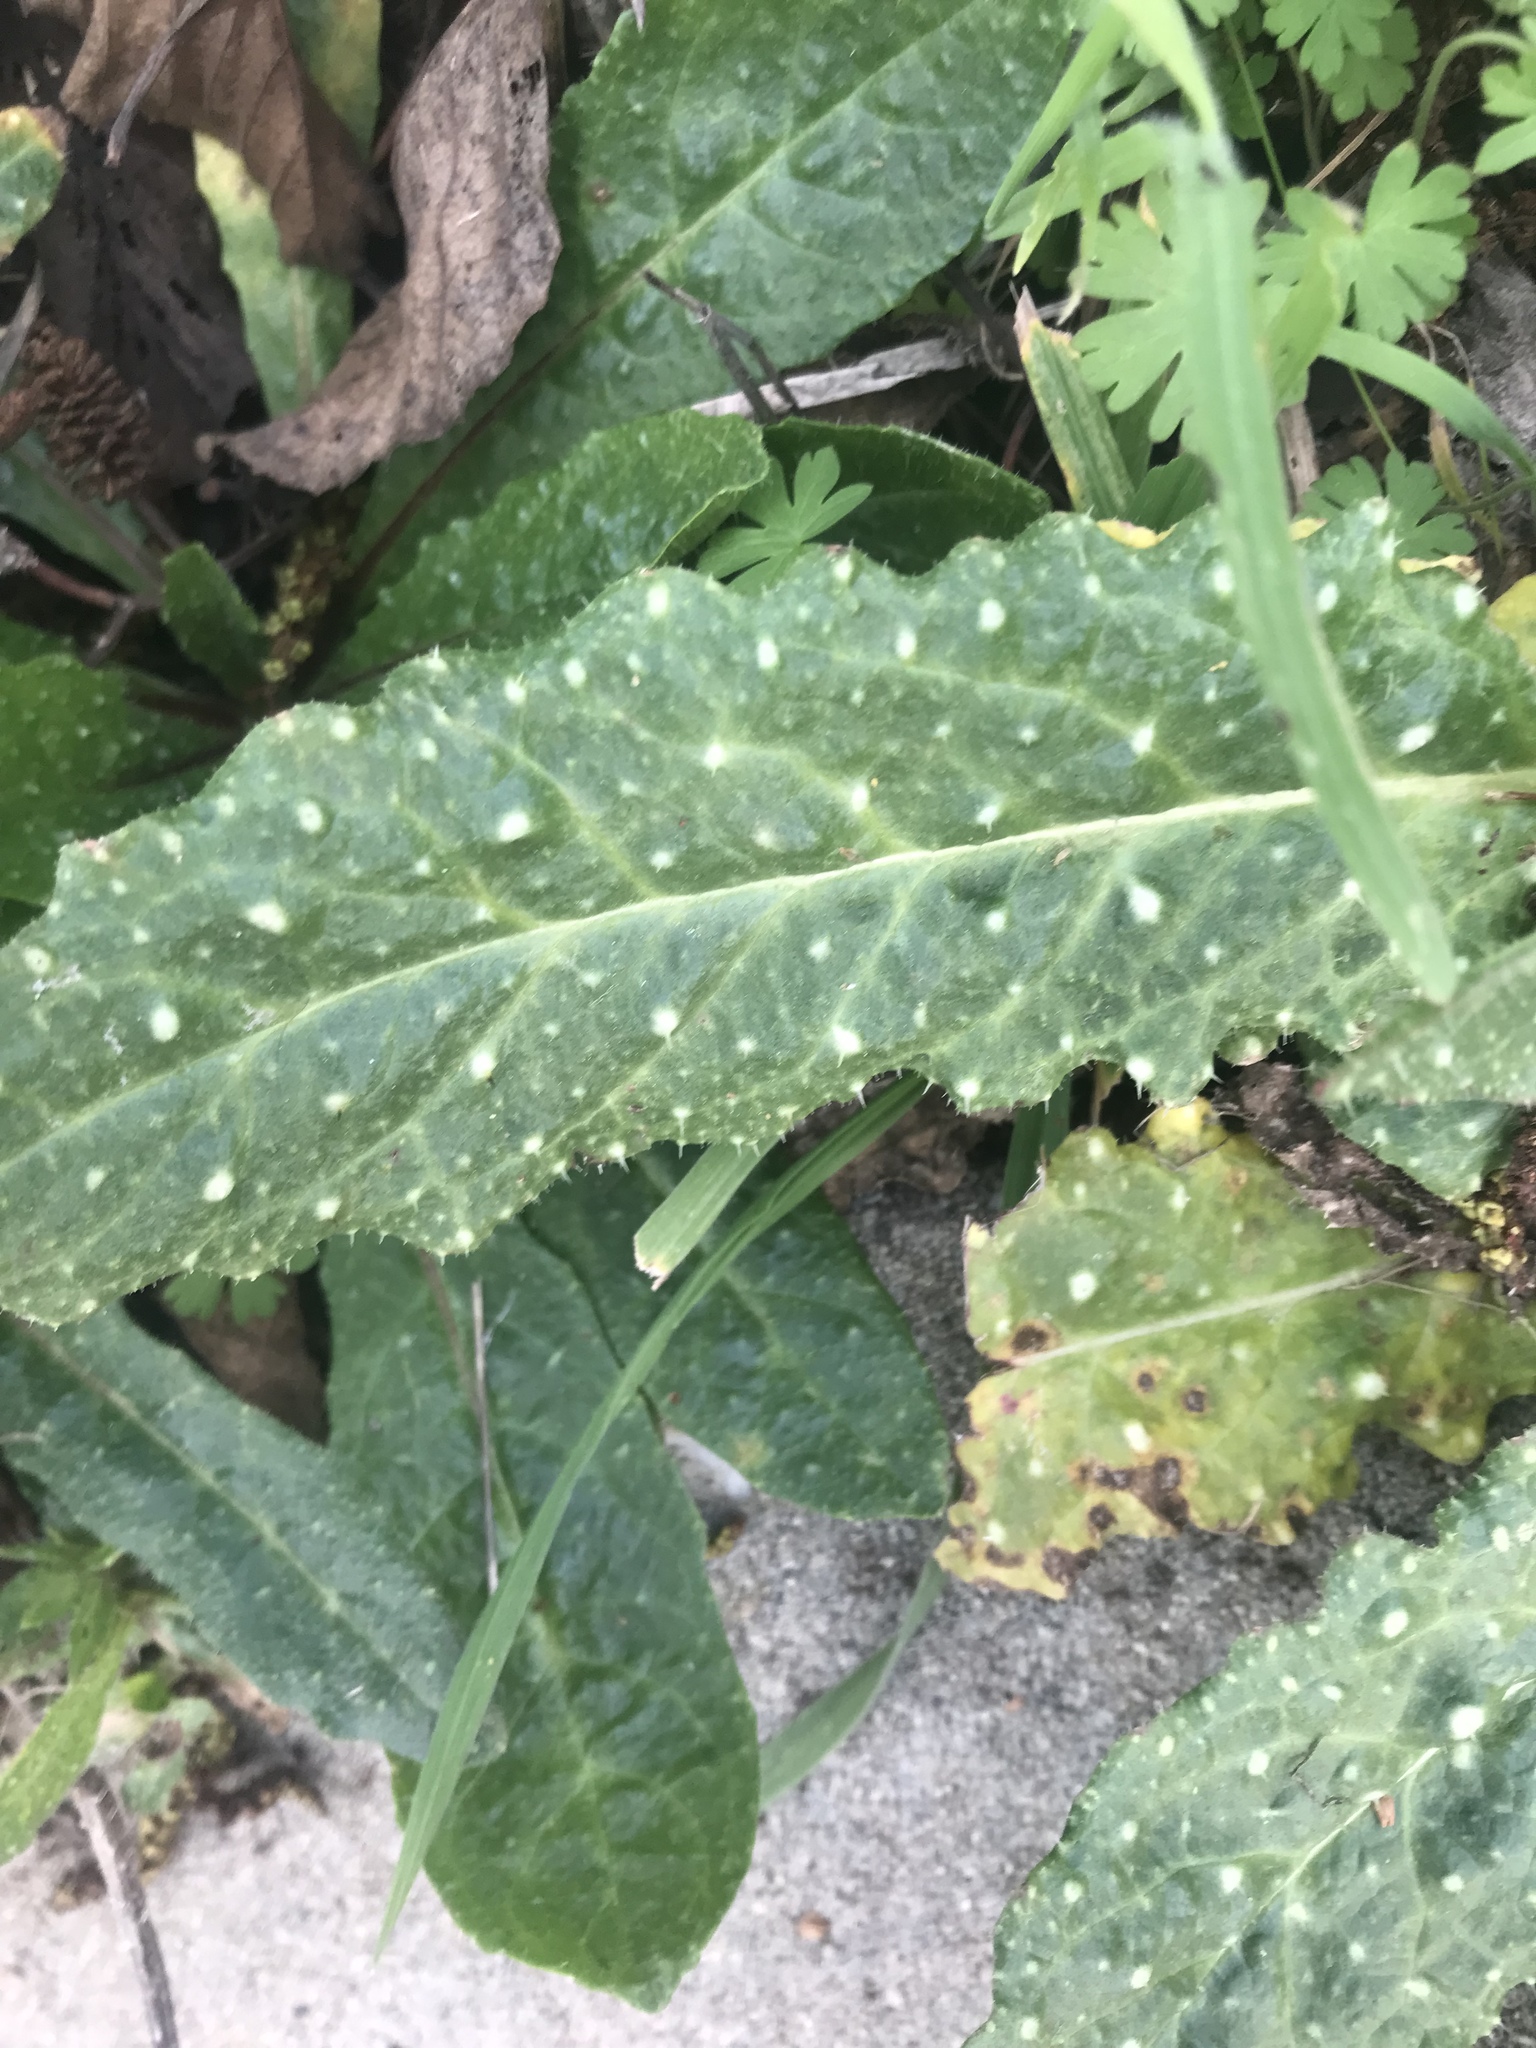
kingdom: Plantae
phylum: Tracheophyta
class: Magnoliopsida
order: Asterales
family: Asteraceae
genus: Helminthotheca
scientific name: Helminthotheca echioides
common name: Ox-tongue
